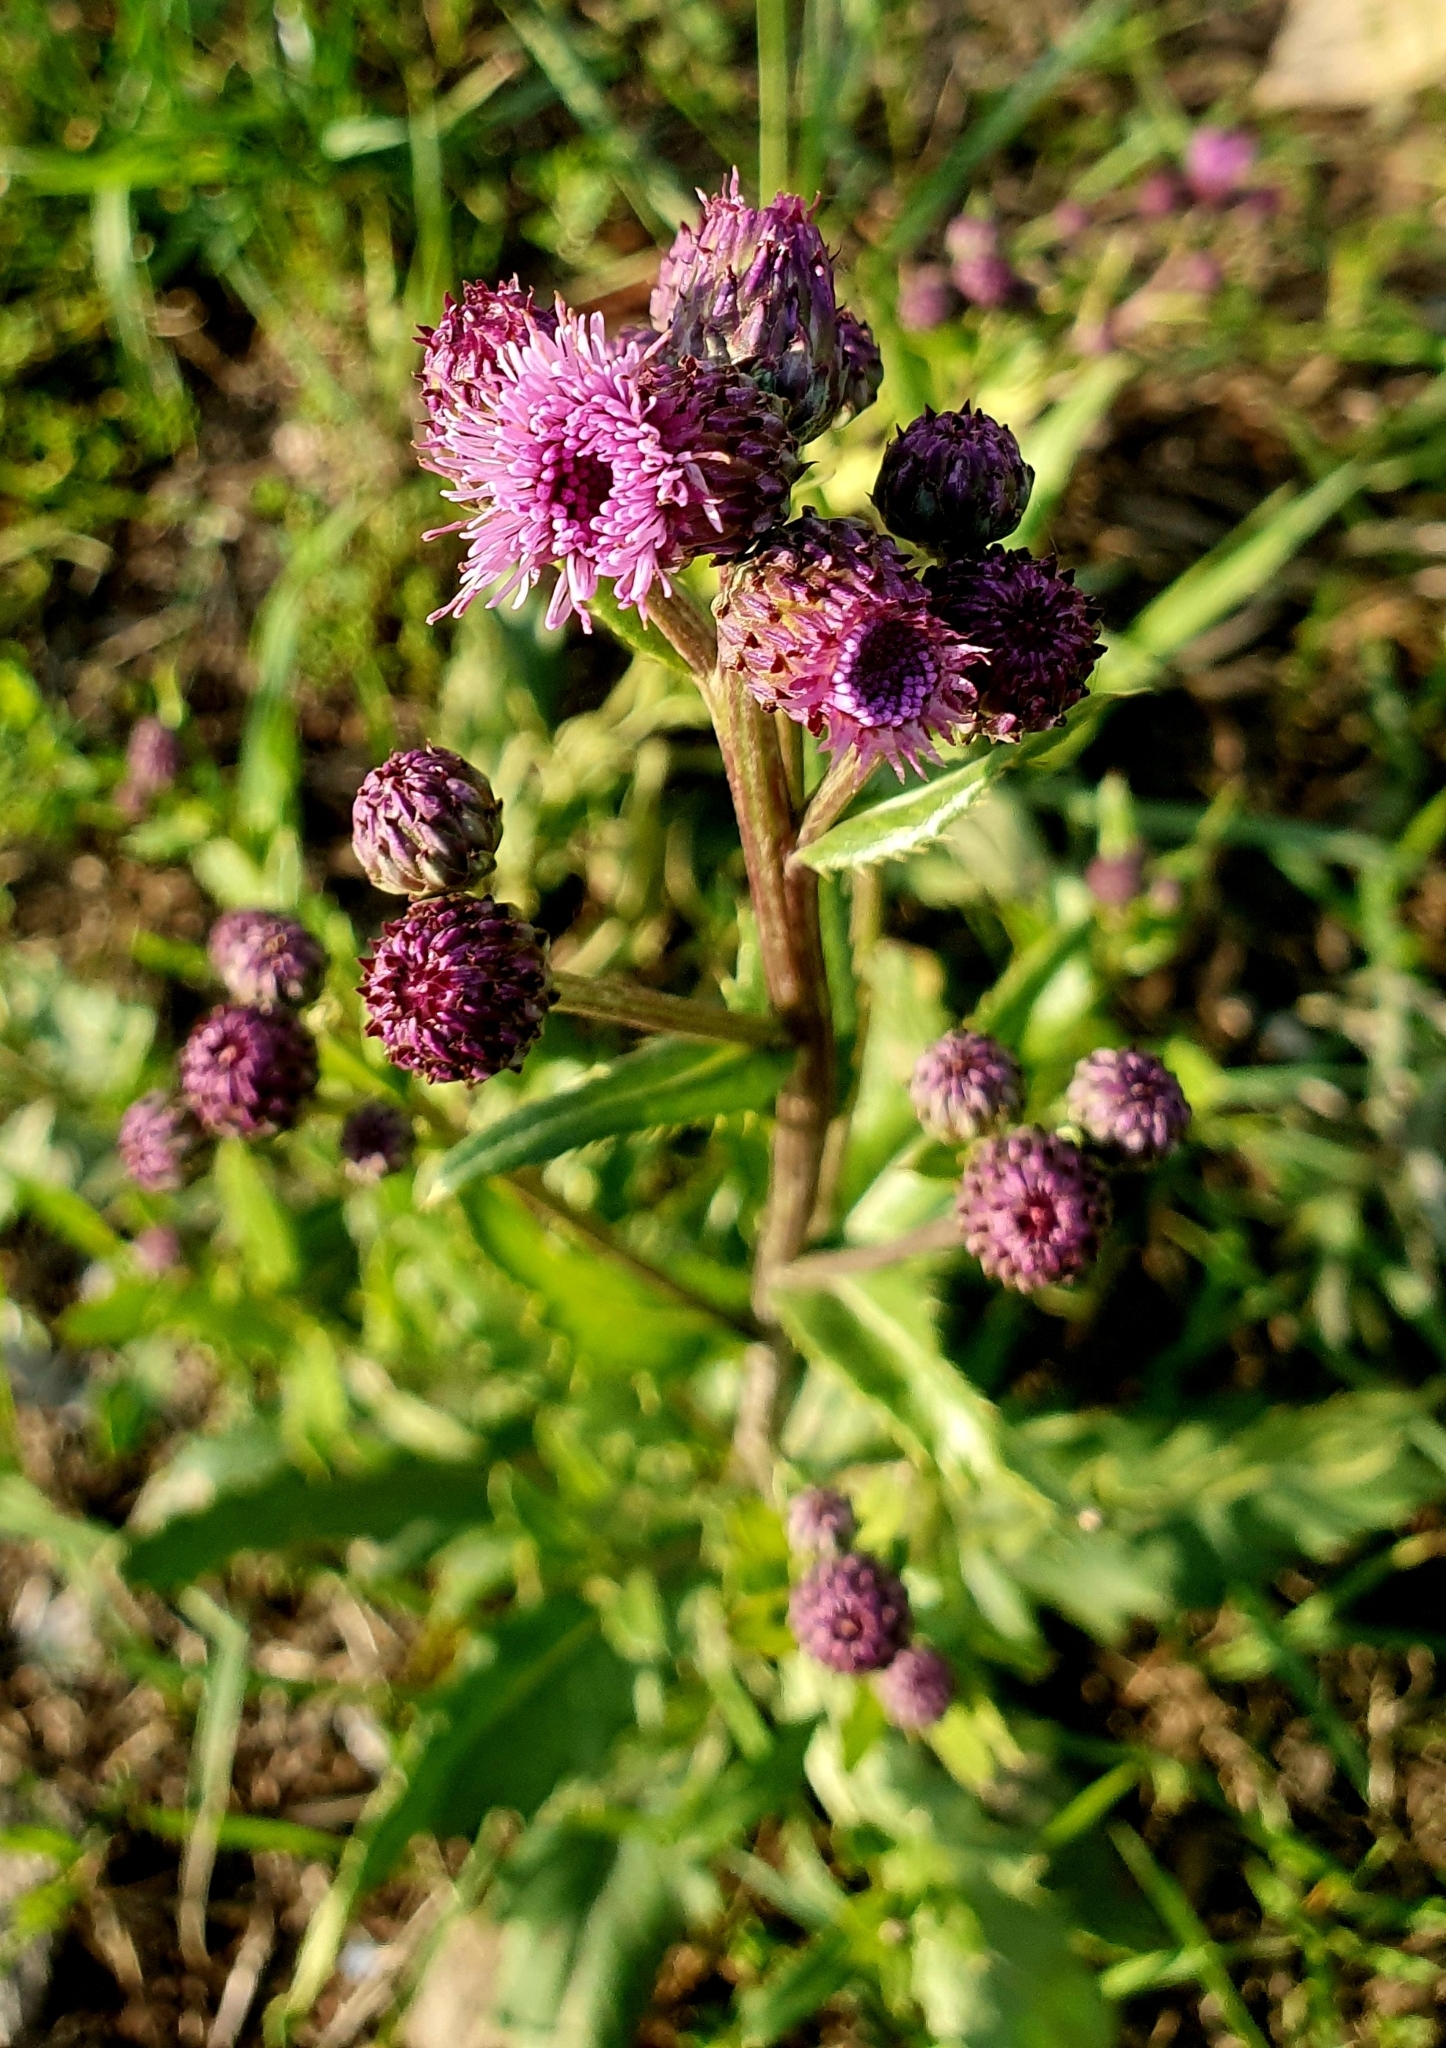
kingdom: Plantae
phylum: Tracheophyta
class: Magnoliopsida
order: Asterales
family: Asteraceae
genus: Cirsium
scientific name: Cirsium arvense
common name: Creeping thistle
